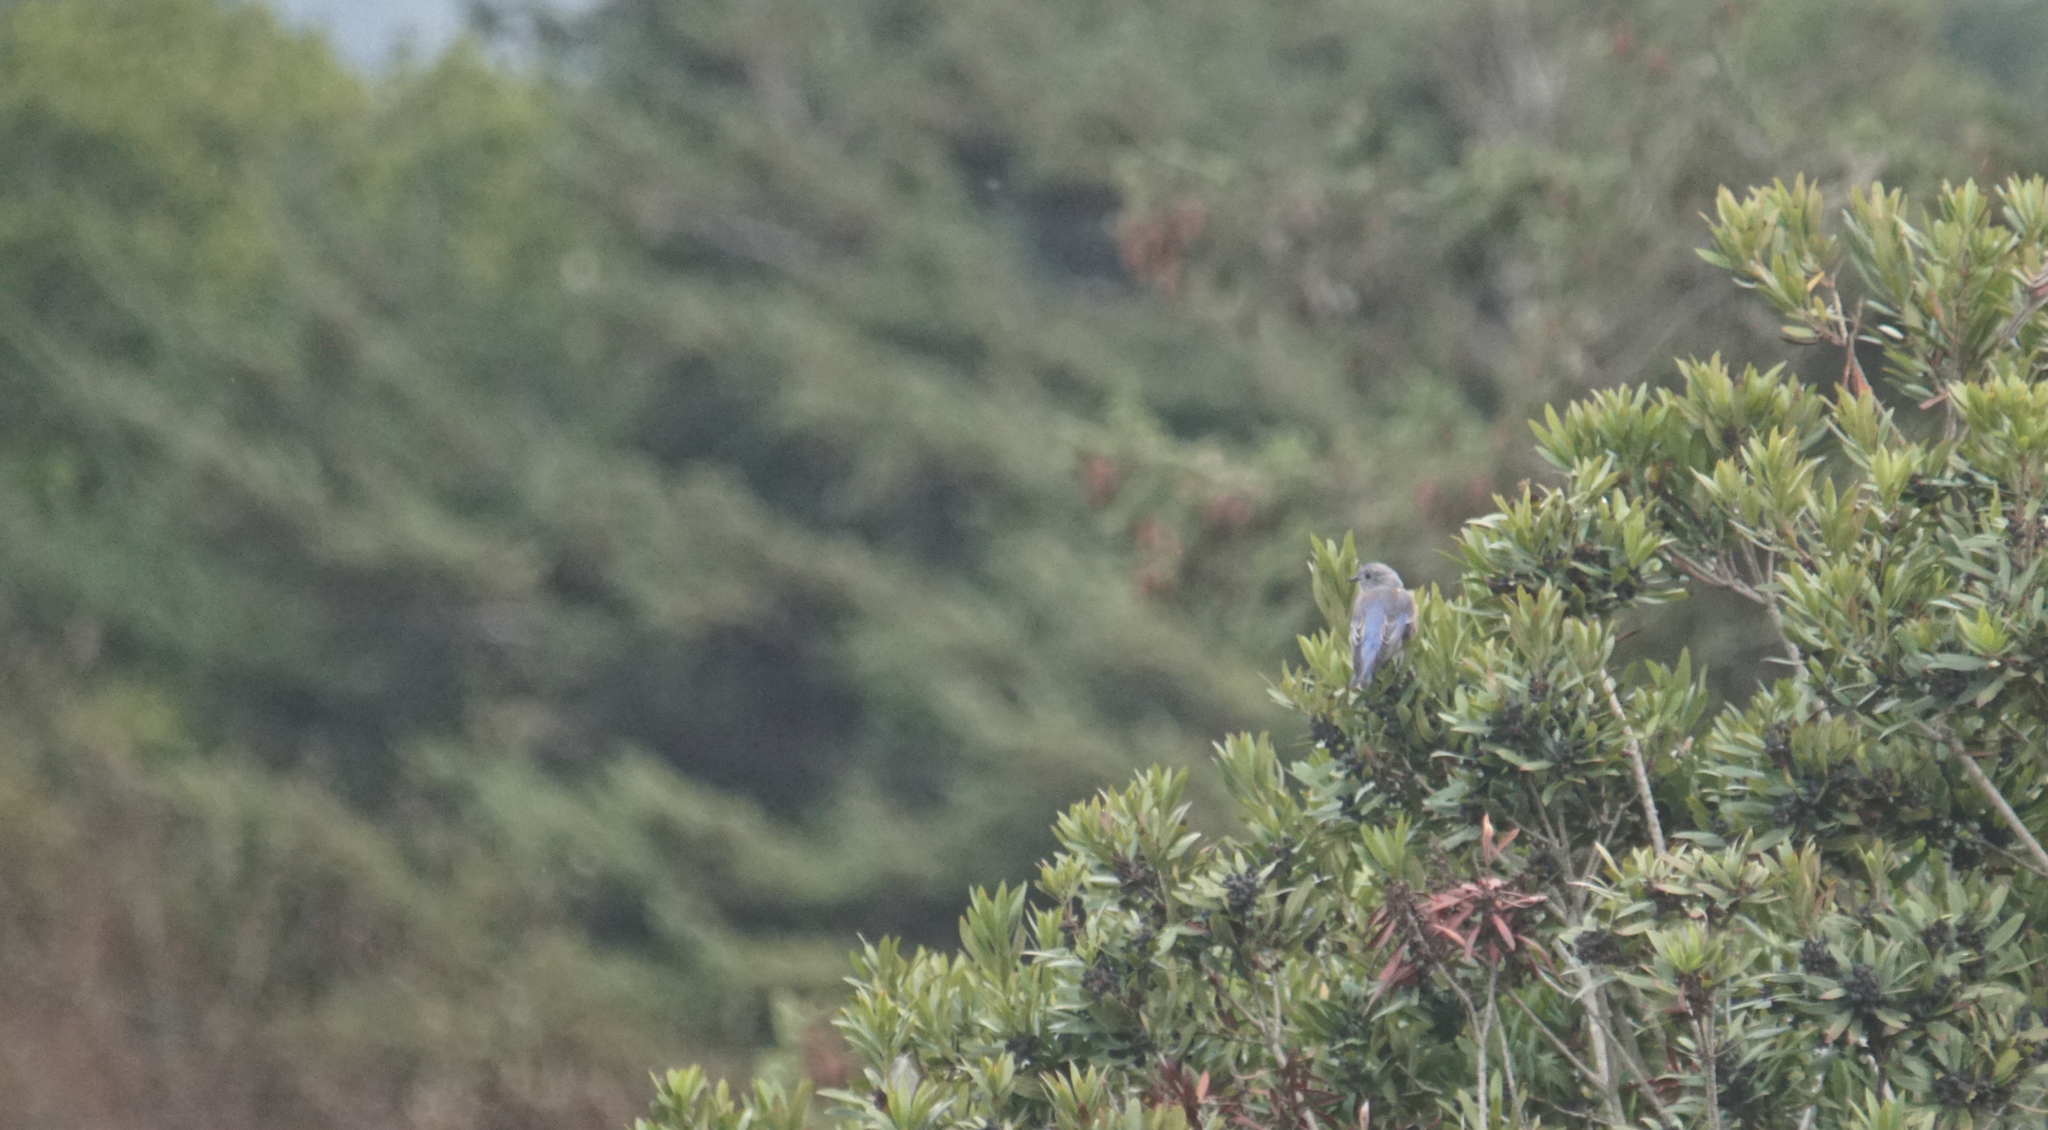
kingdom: Animalia
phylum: Chordata
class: Aves
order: Passeriformes
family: Turdidae
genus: Sialia
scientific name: Sialia mexicana
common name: Western bluebird
